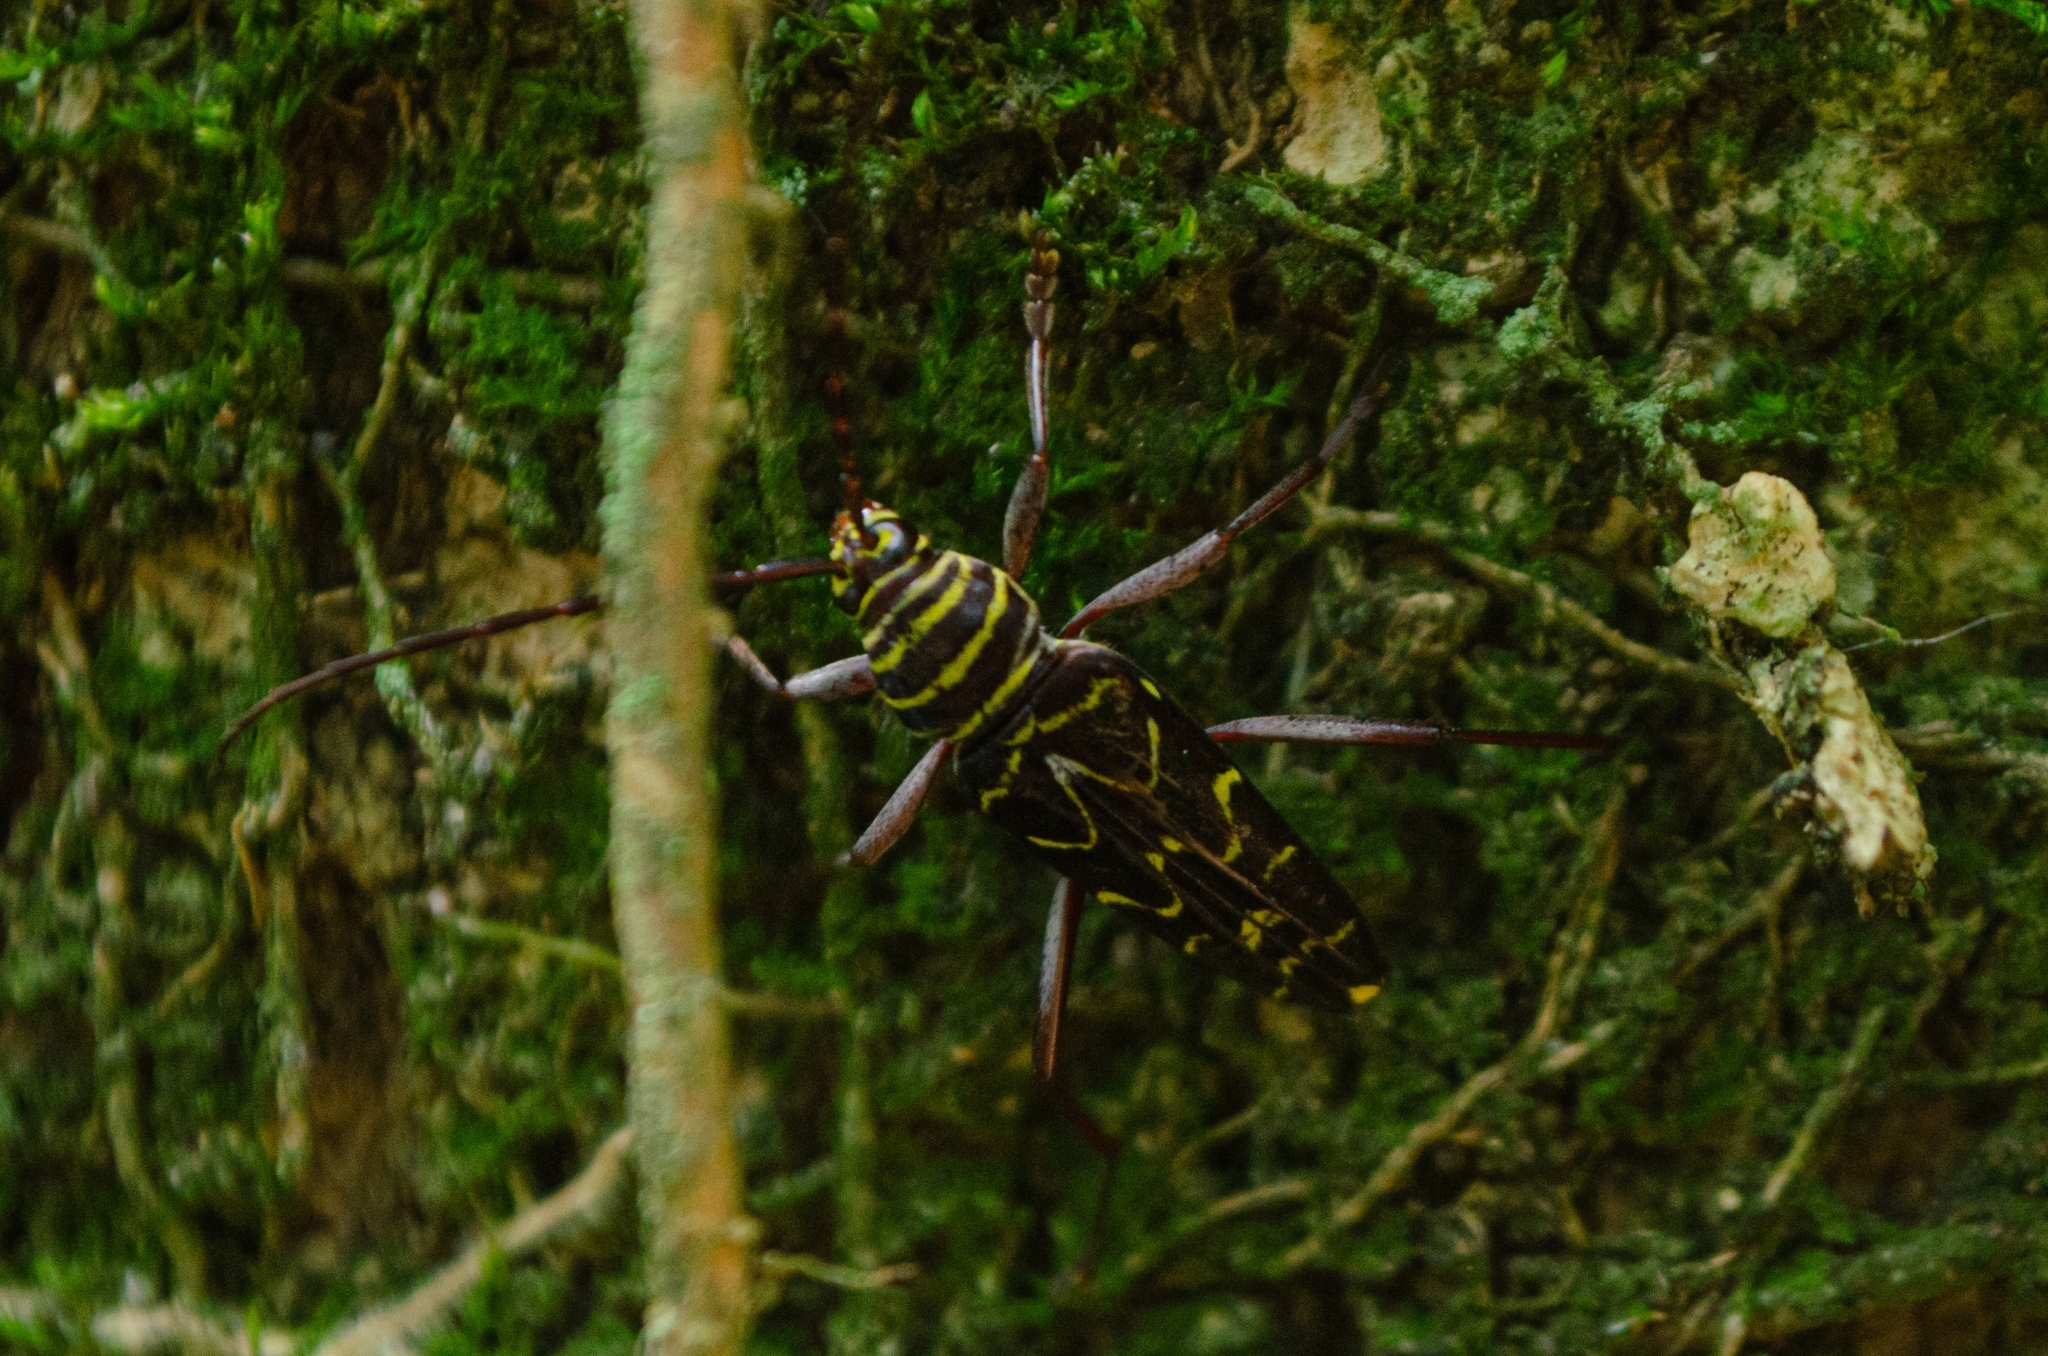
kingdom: Animalia
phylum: Arthropoda
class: Insecta
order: Coleoptera
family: Cerambycidae
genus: Megacyllene
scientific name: Megacyllene acuta
